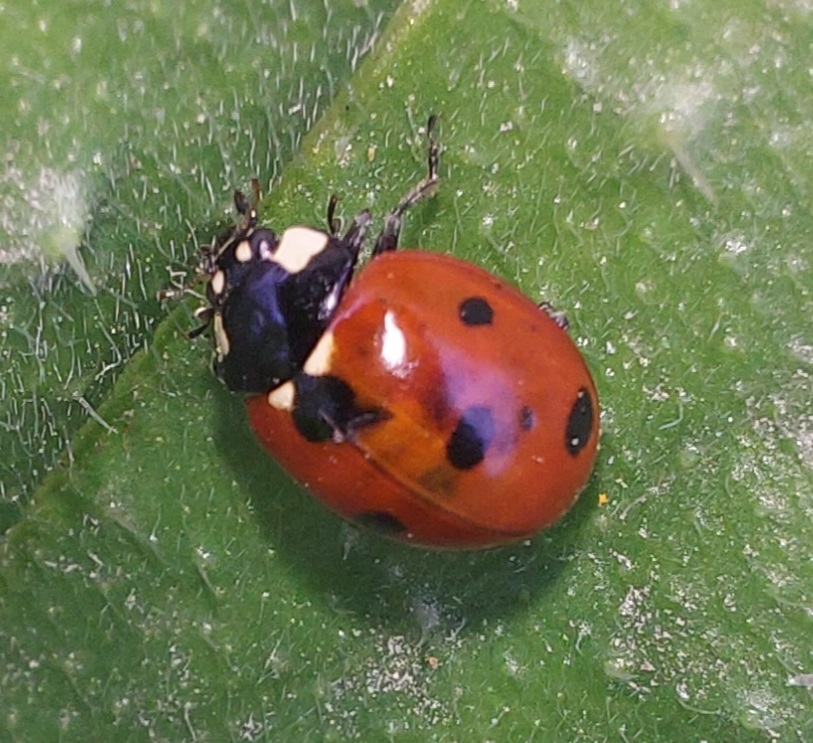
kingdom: Animalia
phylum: Arthropoda
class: Insecta
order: Coleoptera
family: Coccinellidae
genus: Coccinella
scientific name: Coccinella septempunctata
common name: Sevenspotted lady beetle
